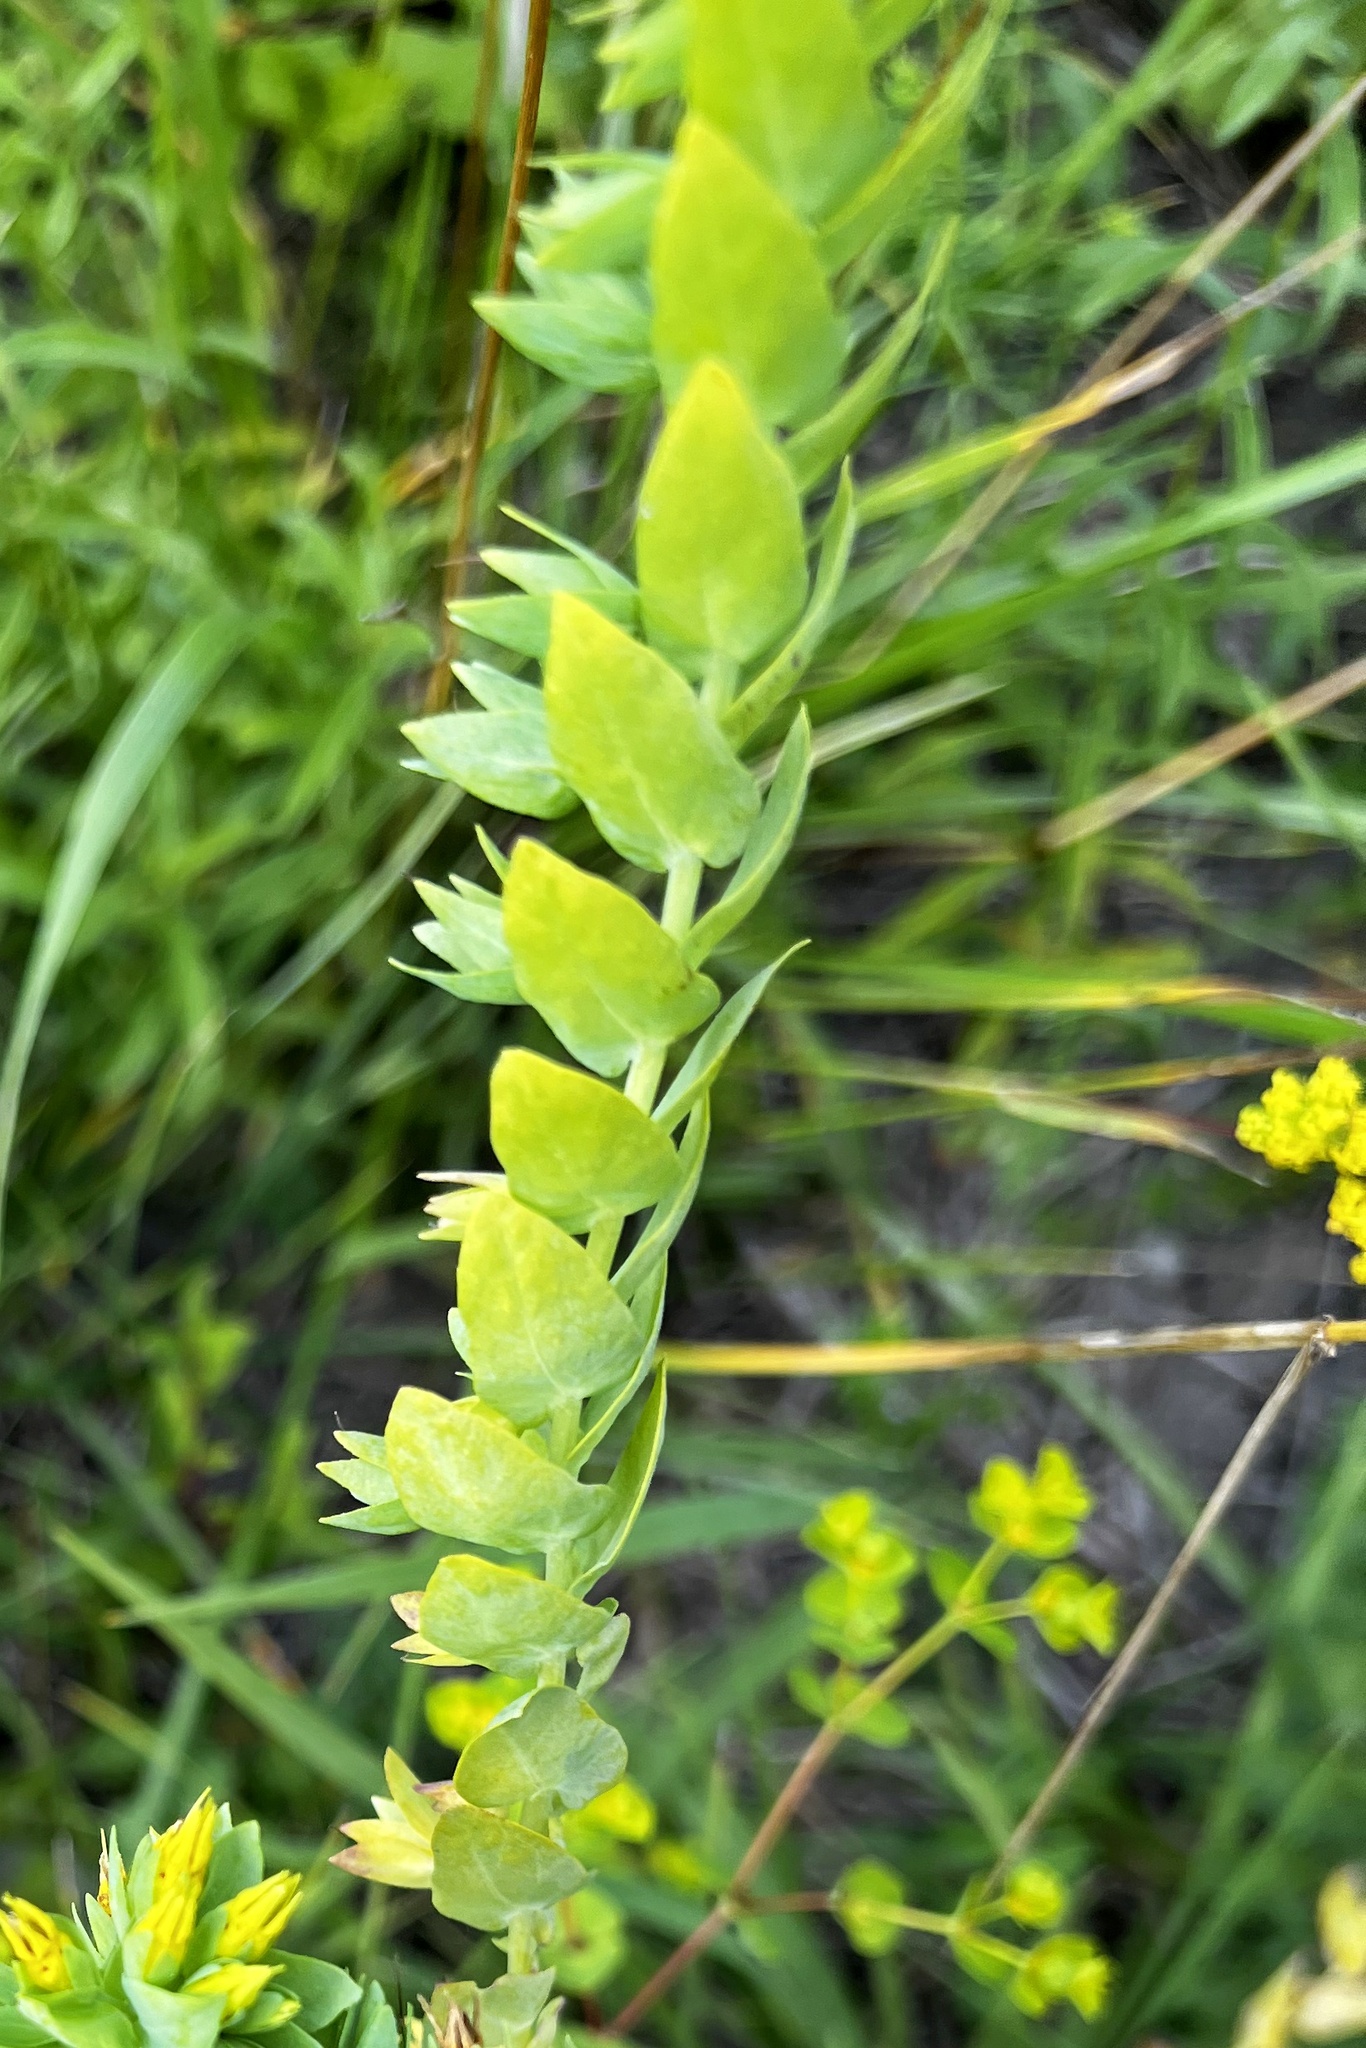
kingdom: Plantae
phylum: Tracheophyta
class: Magnoliopsida
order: Boraginales
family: Boraginaceae
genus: Cerinthe
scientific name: Cerinthe minor
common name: Lesser honeywort
